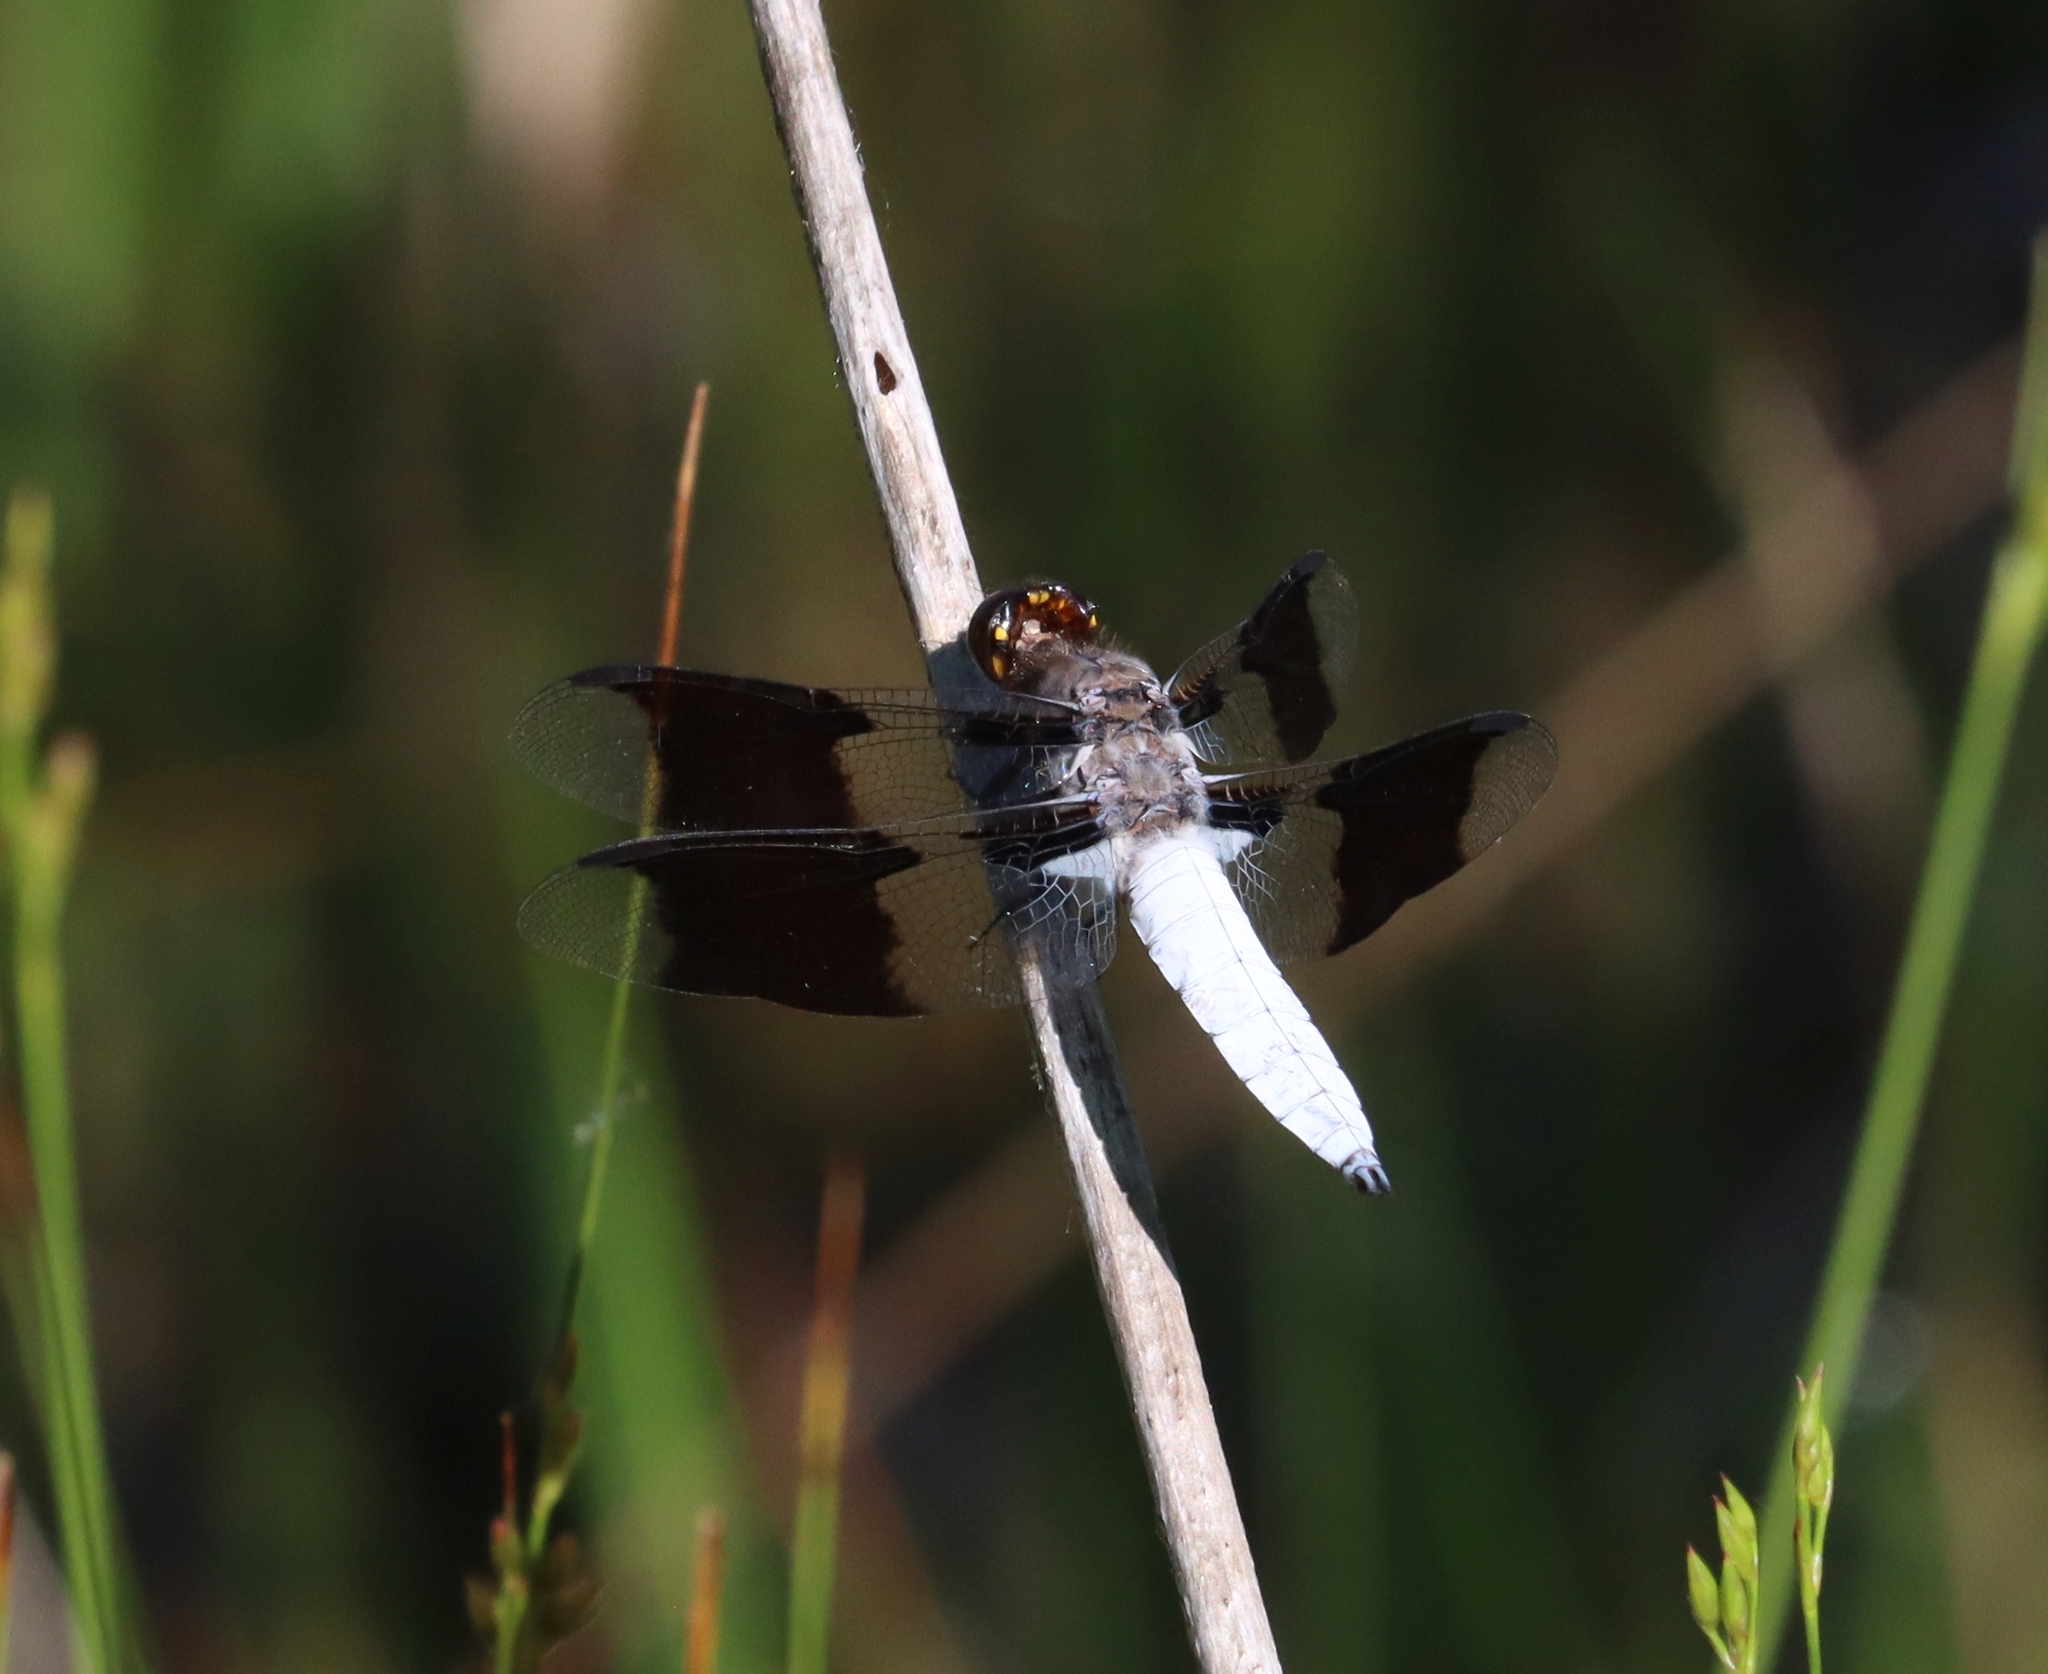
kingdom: Animalia
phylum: Arthropoda
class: Insecta
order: Odonata
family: Libellulidae
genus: Plathemis
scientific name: Plathemis lydia
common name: Common whitetail
